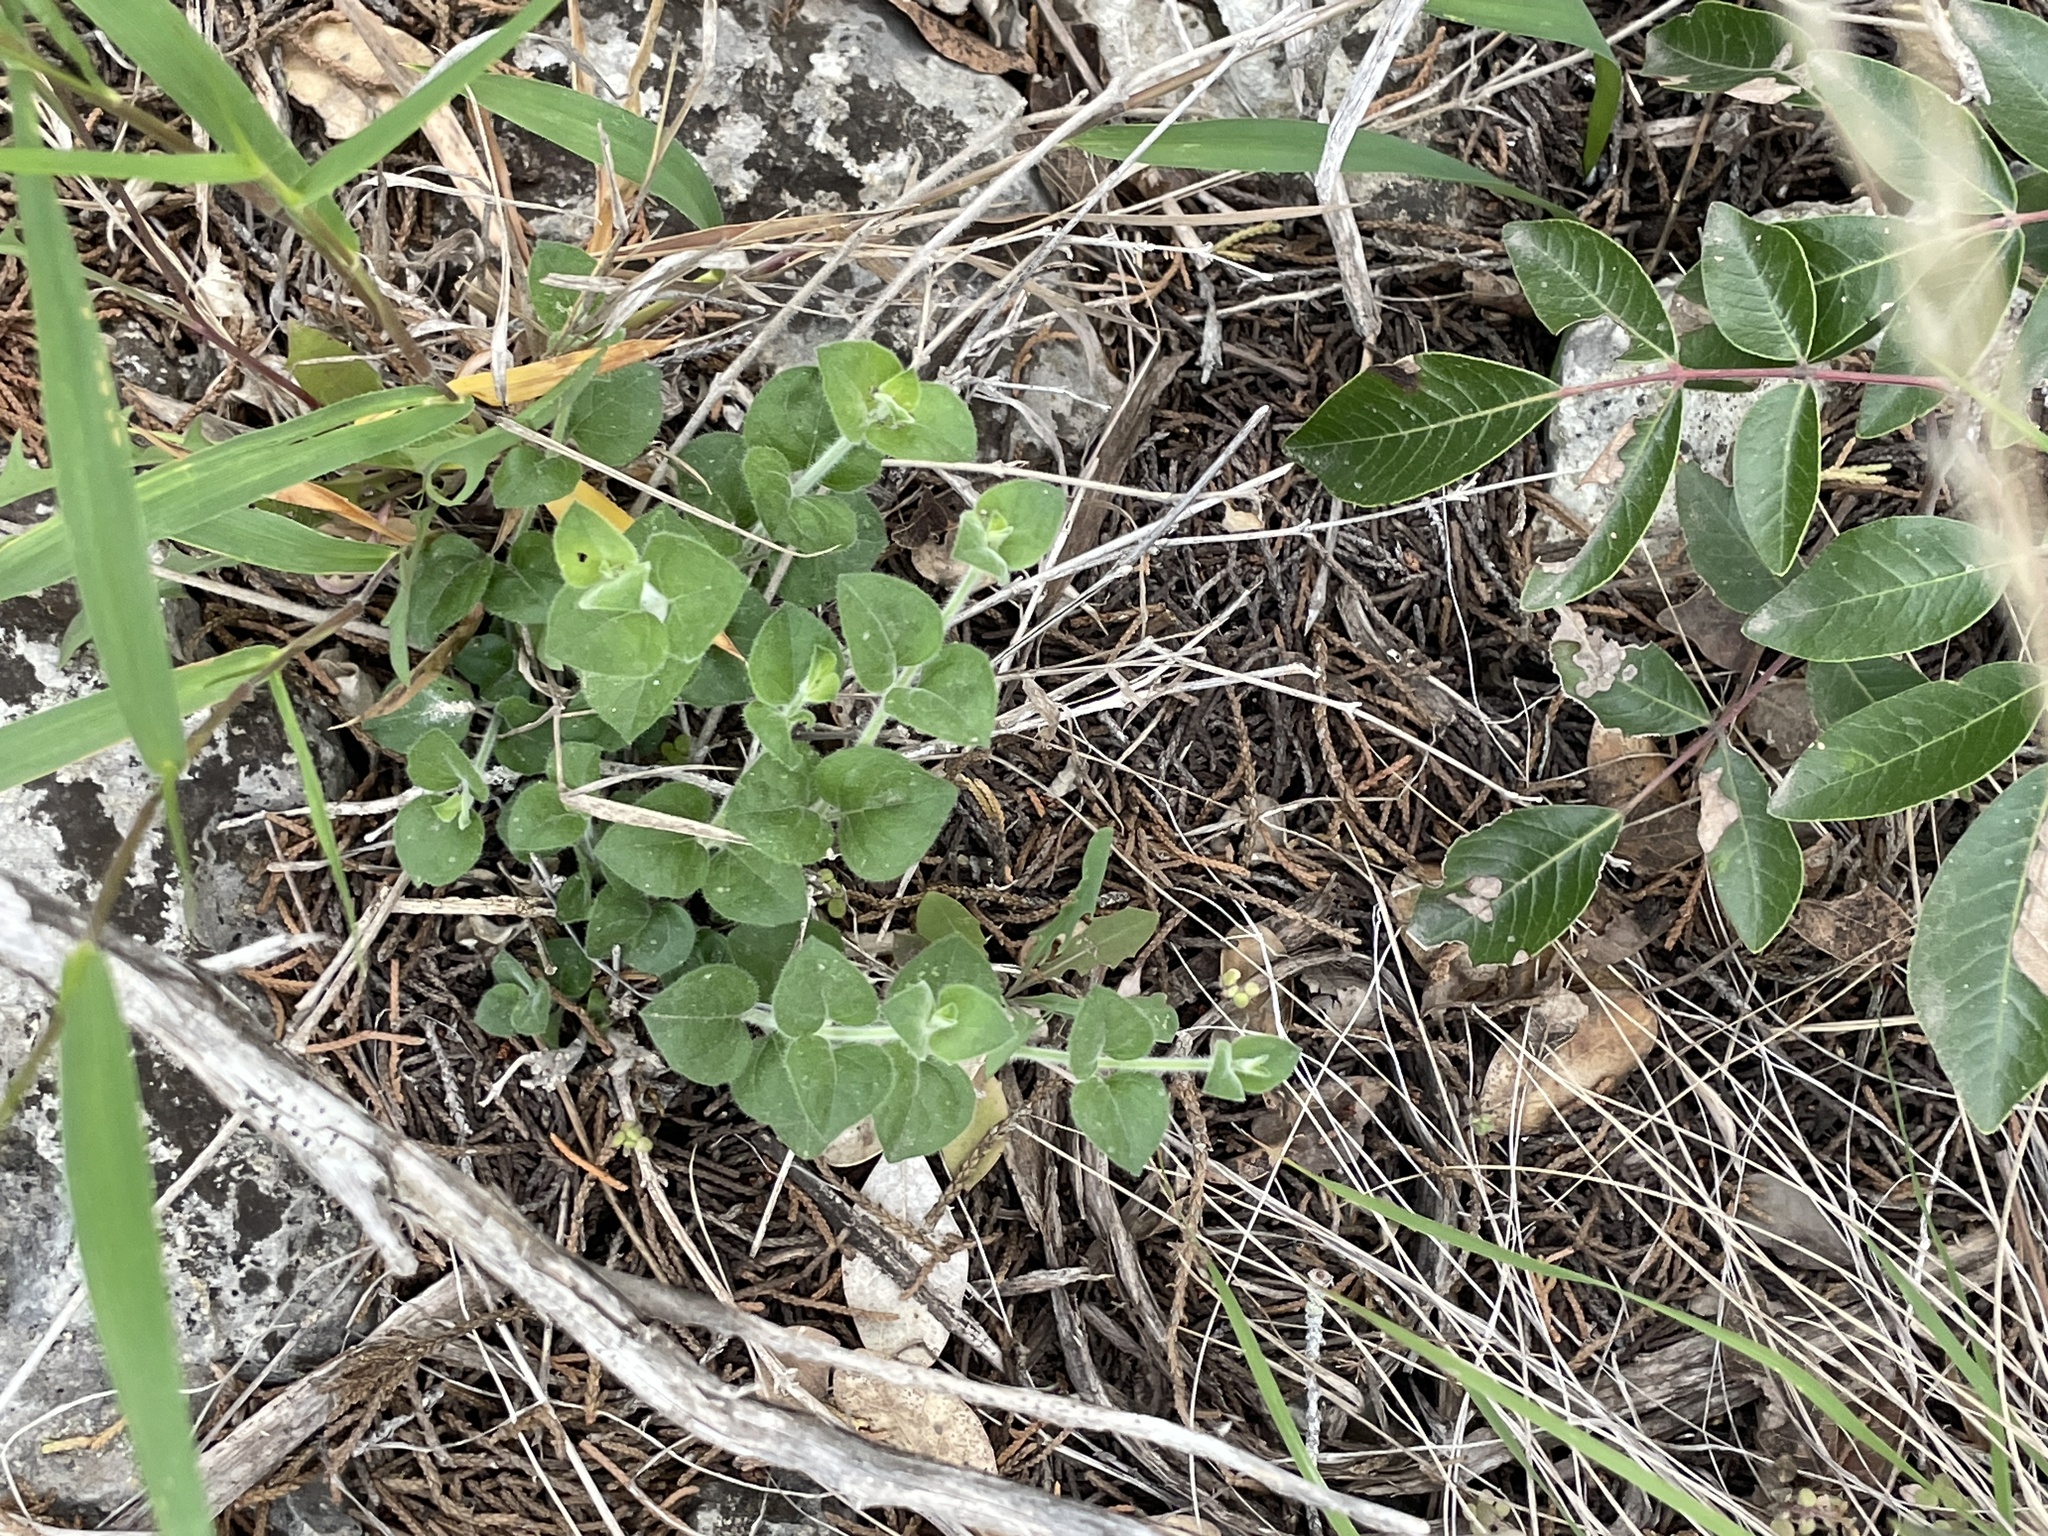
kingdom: Plantae
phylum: Tracheophyta
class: Magnoliopsida
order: Lamiales
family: Acanthaceae
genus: Carlowrightia
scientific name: Carlowrightia torreyana
